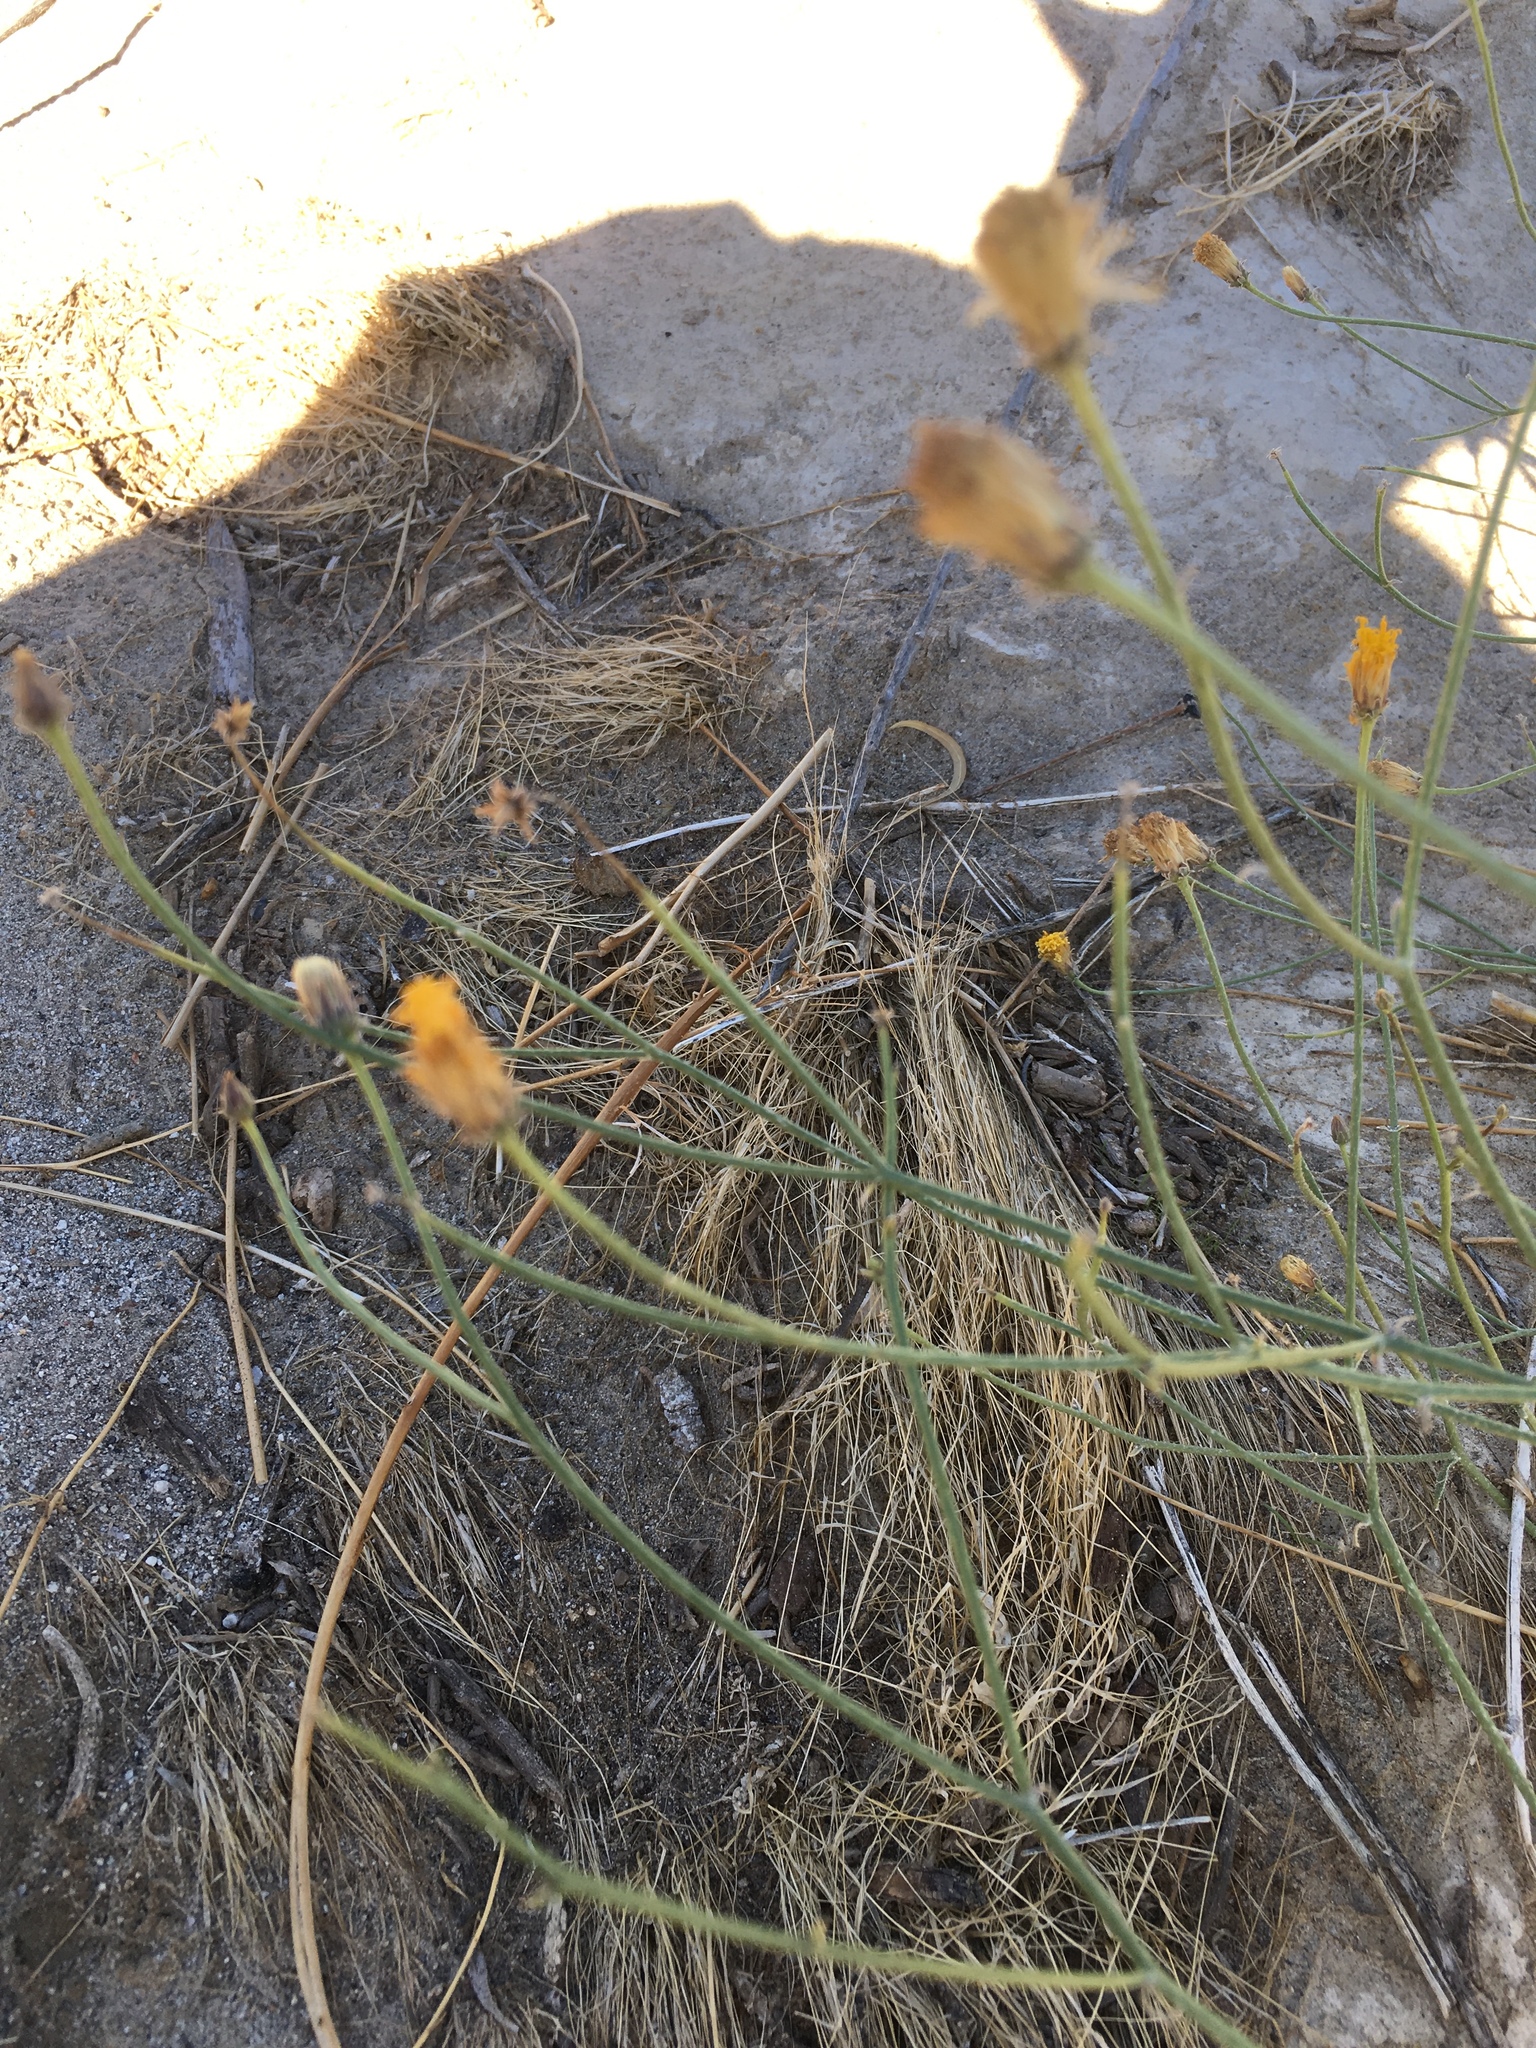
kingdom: Plantae
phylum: Tracheophyta
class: Magnoliopsida
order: Asterales
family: Asteraceae
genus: Bebbia
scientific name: Bebbia juncea
